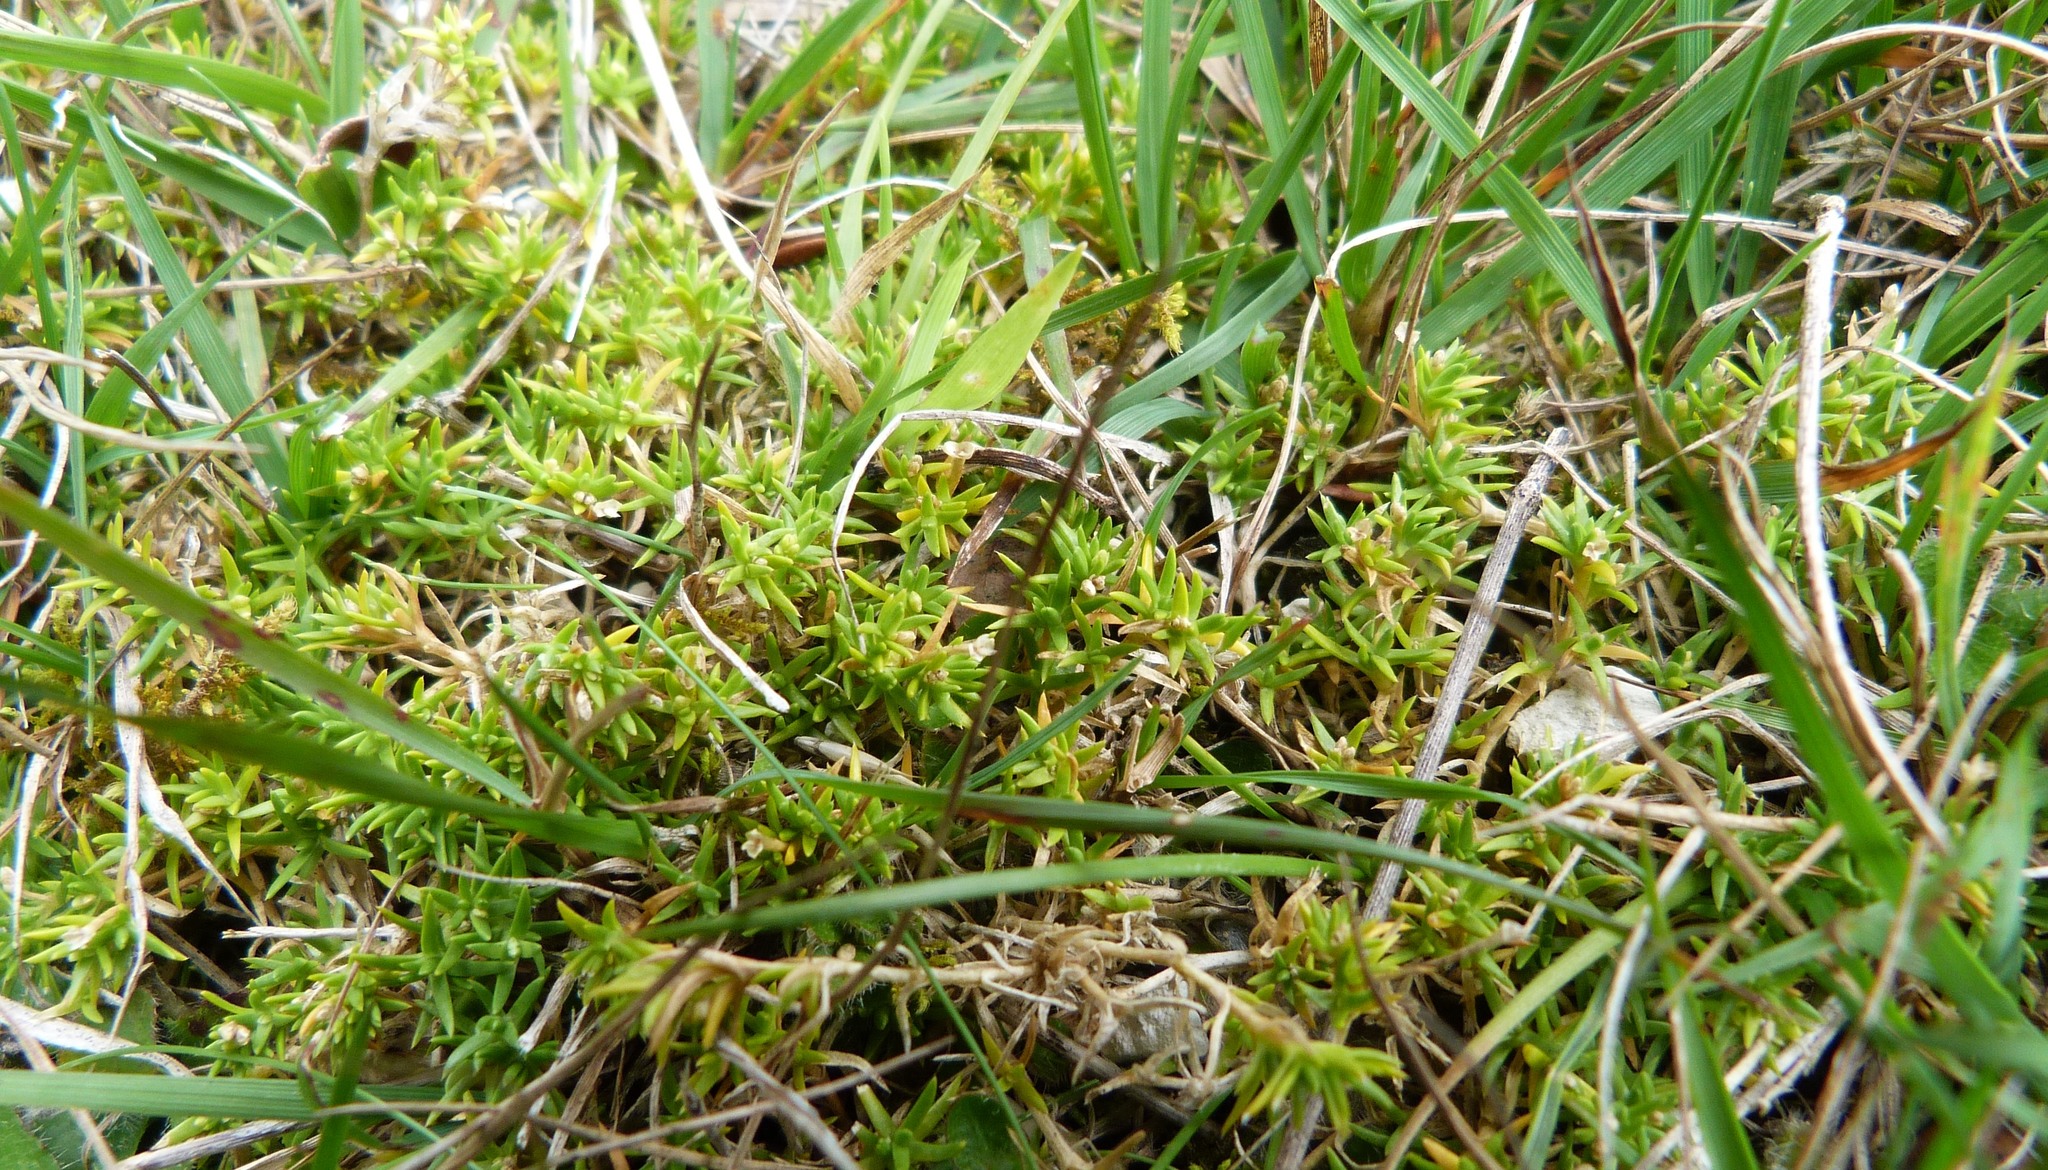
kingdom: Plantae
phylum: Tracheophyta
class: Magnoliopsida
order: Caryophyllales
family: Caryophyllaceae
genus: Scleranthus
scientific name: Scleranthus brockiei
